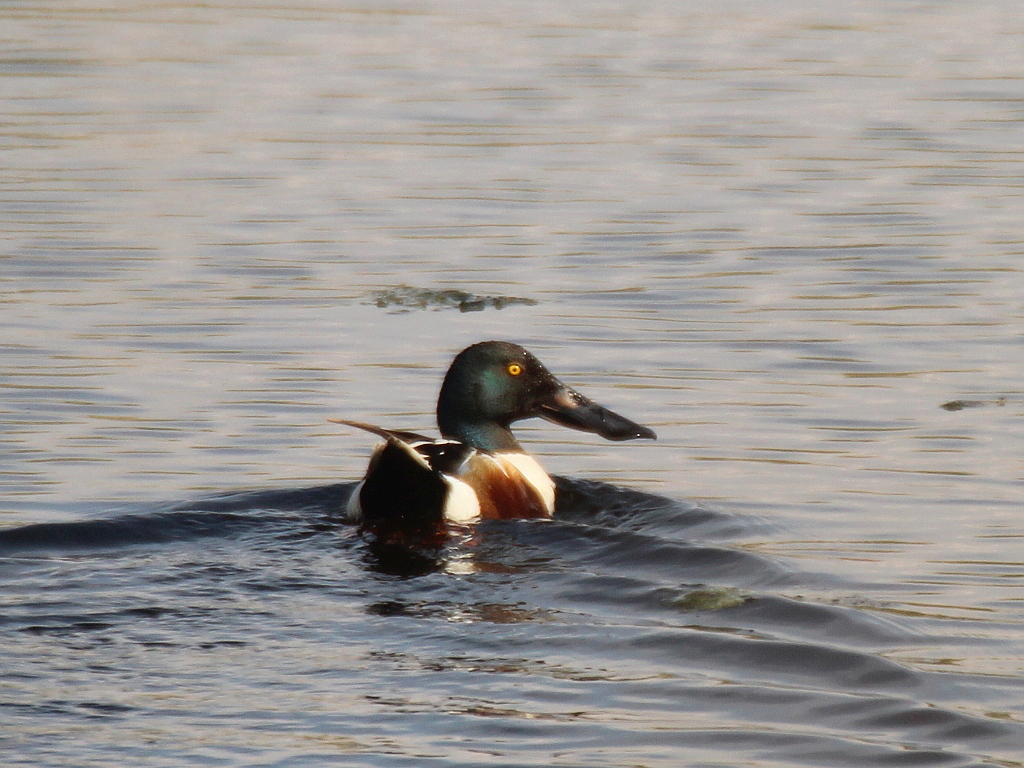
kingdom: Animalia
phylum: Chordata
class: Aves
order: Anseriformes
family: Anatidae
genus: Spatula
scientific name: Spatula clypeata
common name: Northern shoveler
